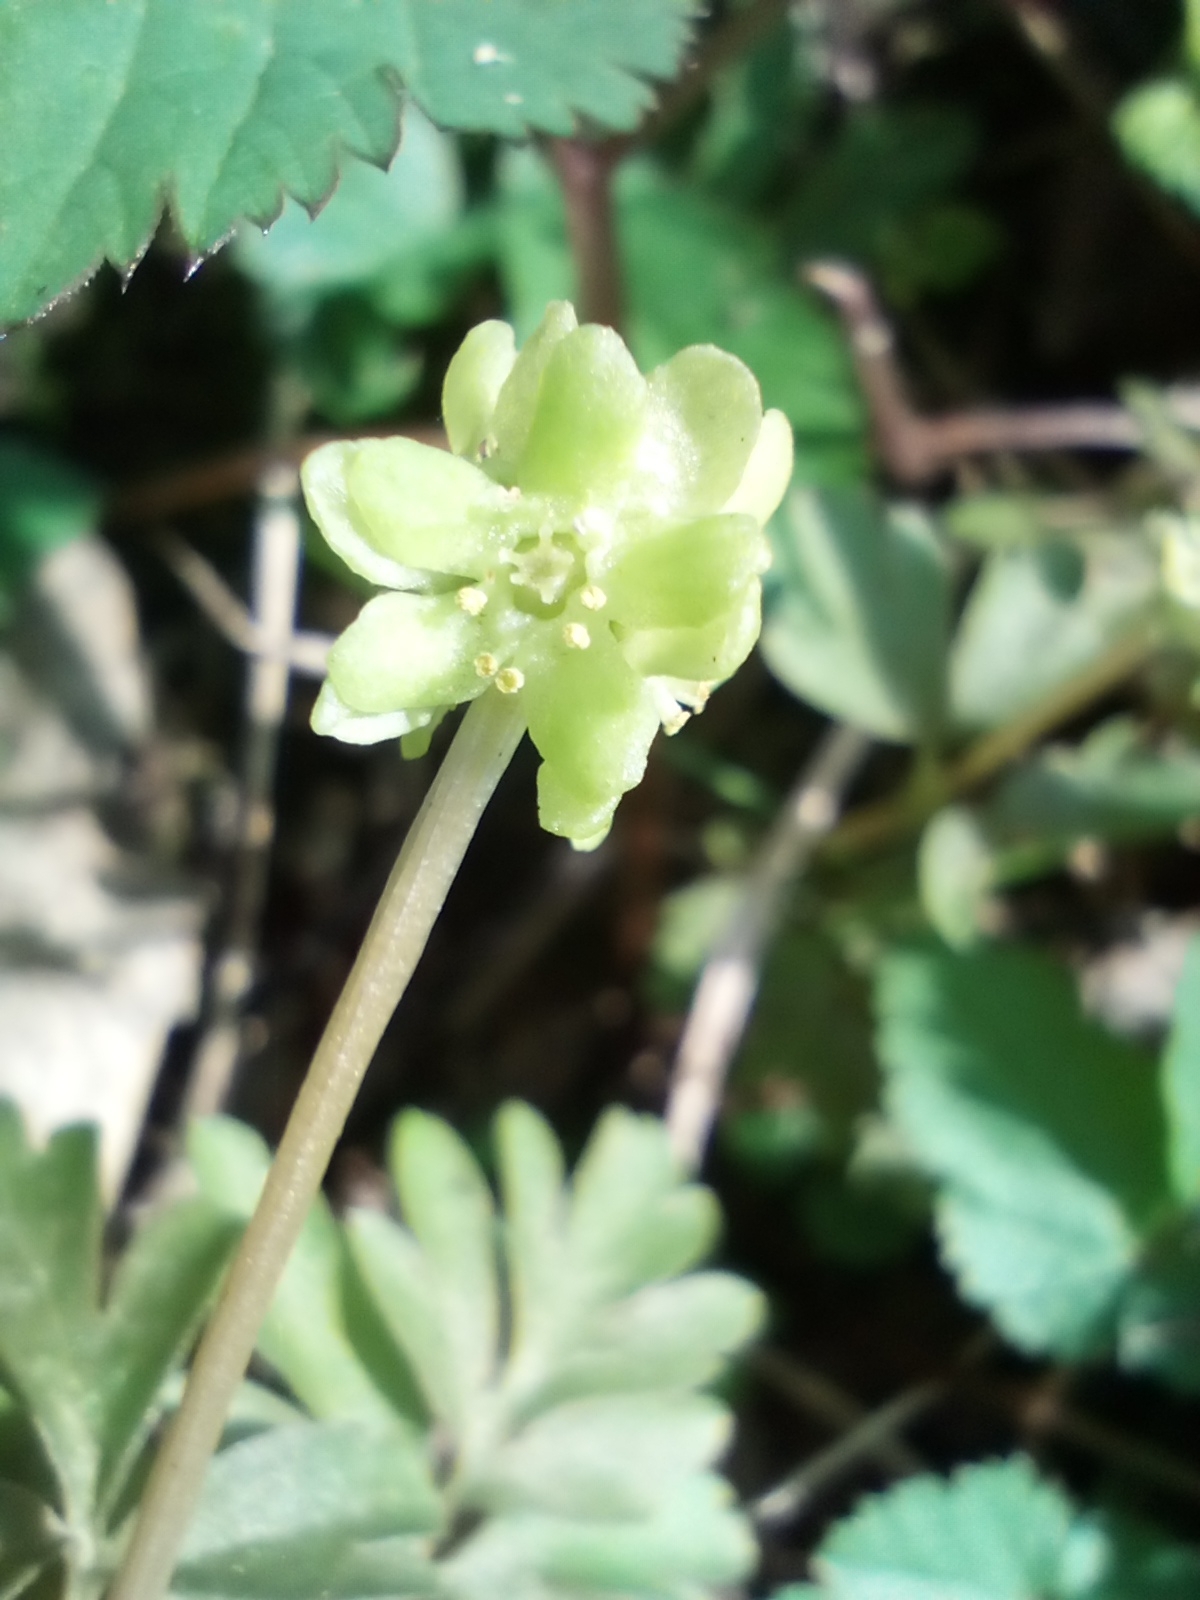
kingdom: Plantae
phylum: Tracheophyta
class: Magnoliopsida
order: Dipsacales
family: Viburnaceae
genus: Adoxa
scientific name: Adoxa moschatellina
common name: Moschatel
